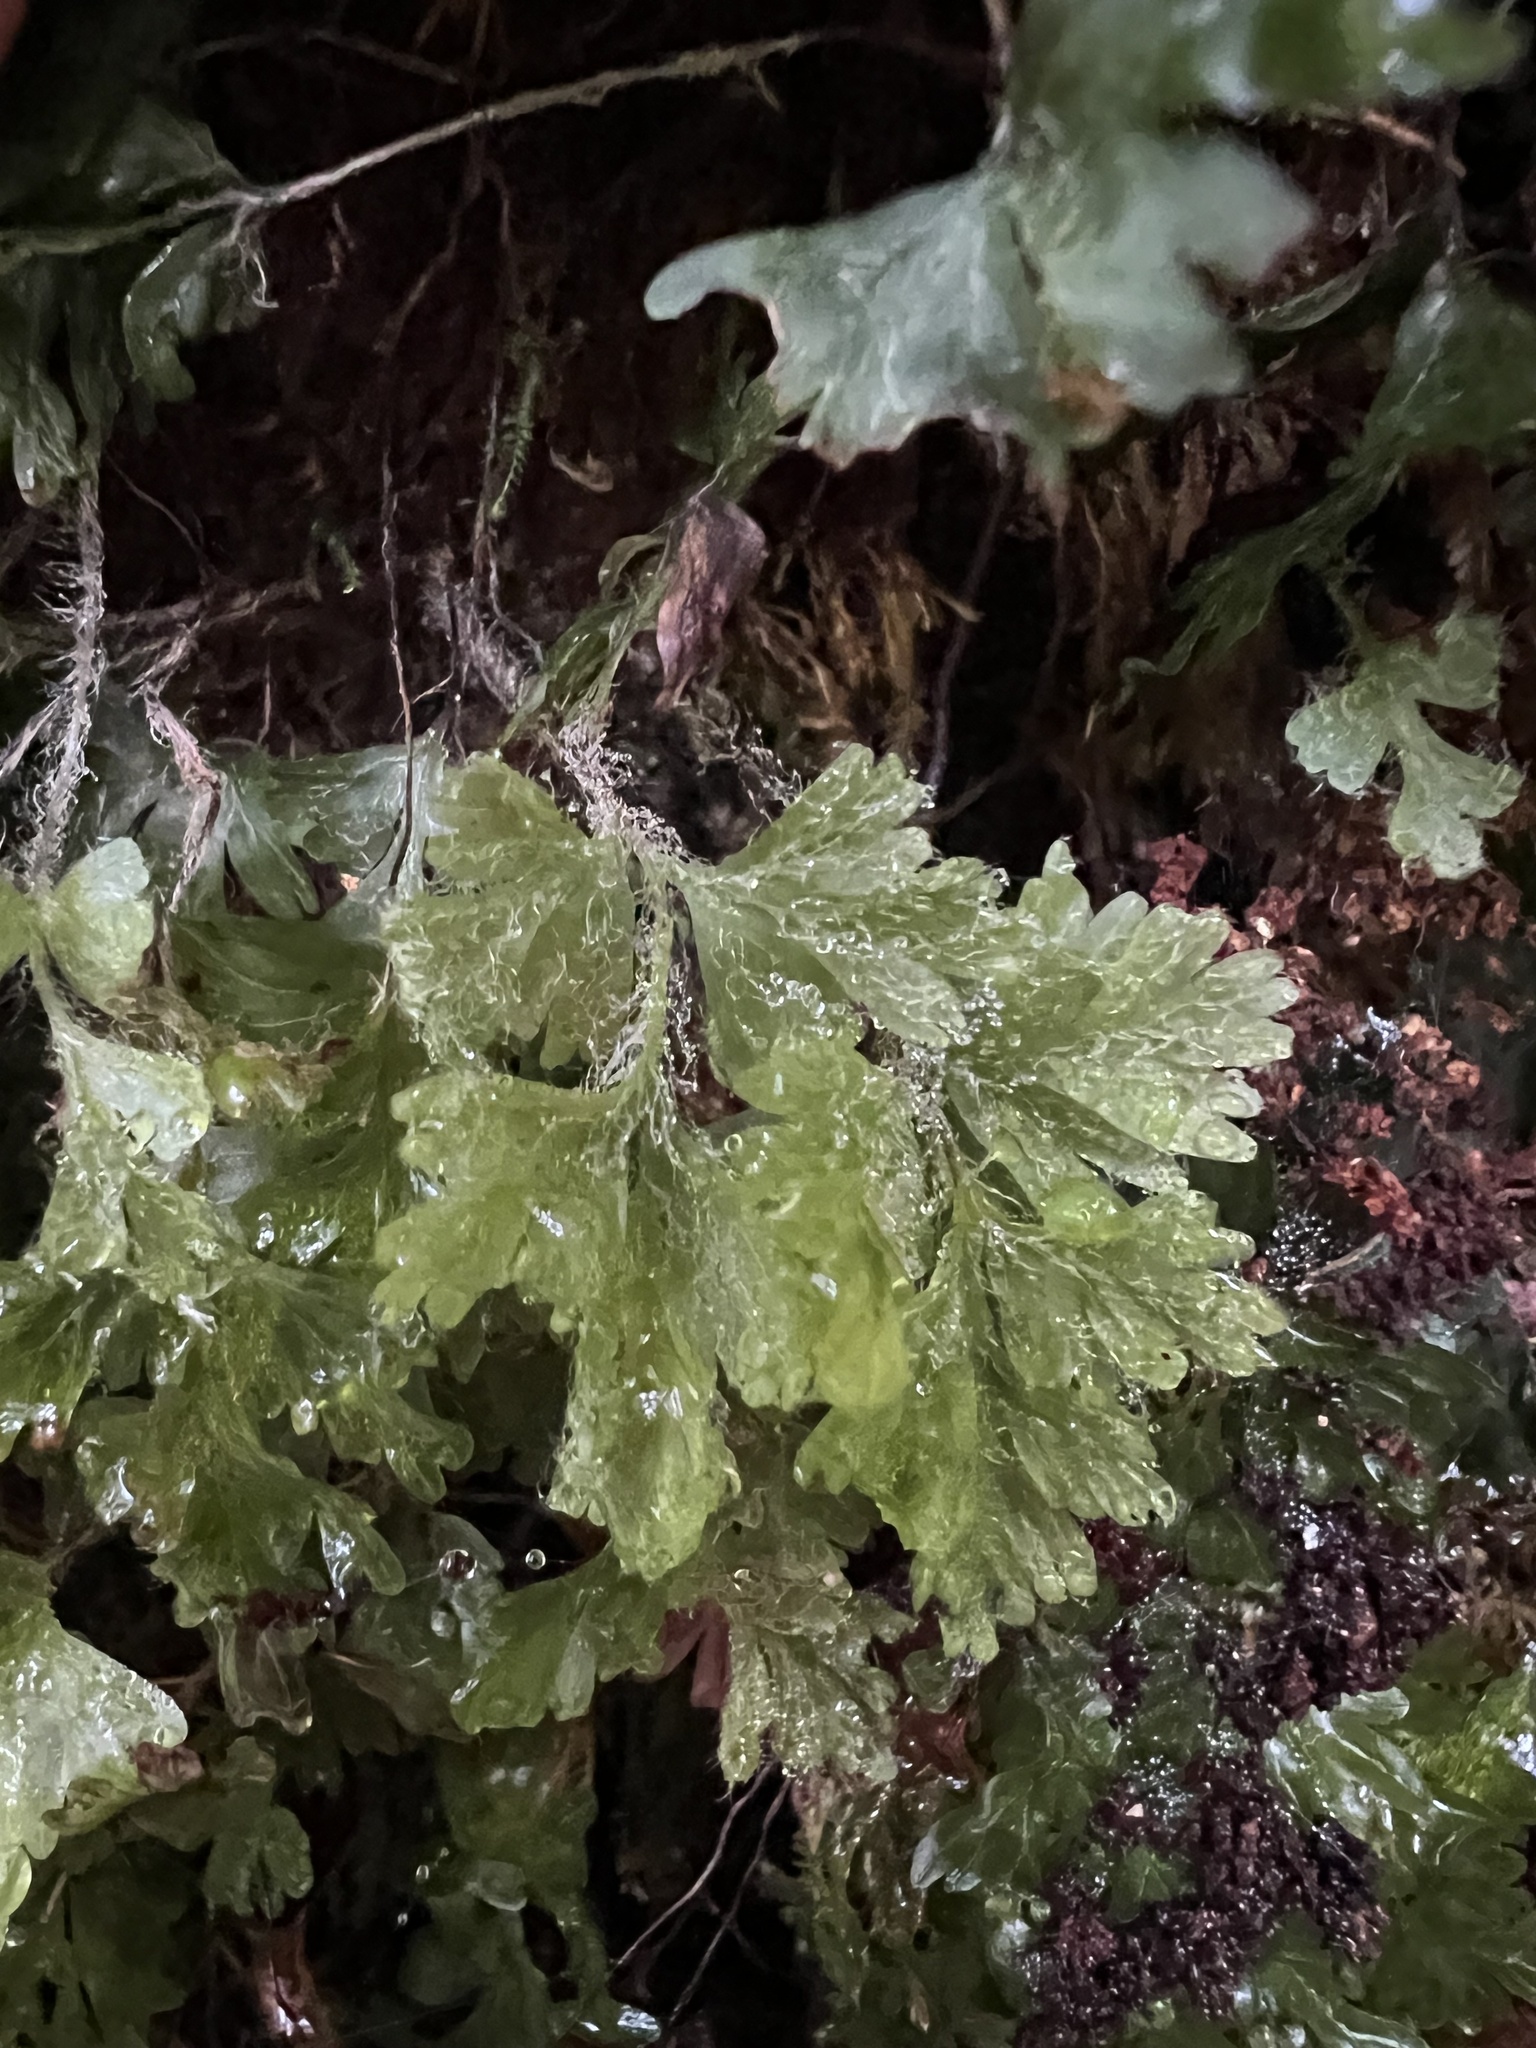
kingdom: Plantae
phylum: Tracheophyta
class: Polypodiopsida
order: Hymenophyllales
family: Hymenophyllaceae
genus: Hymenophyllum
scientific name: Hymenophyllum rufescens
